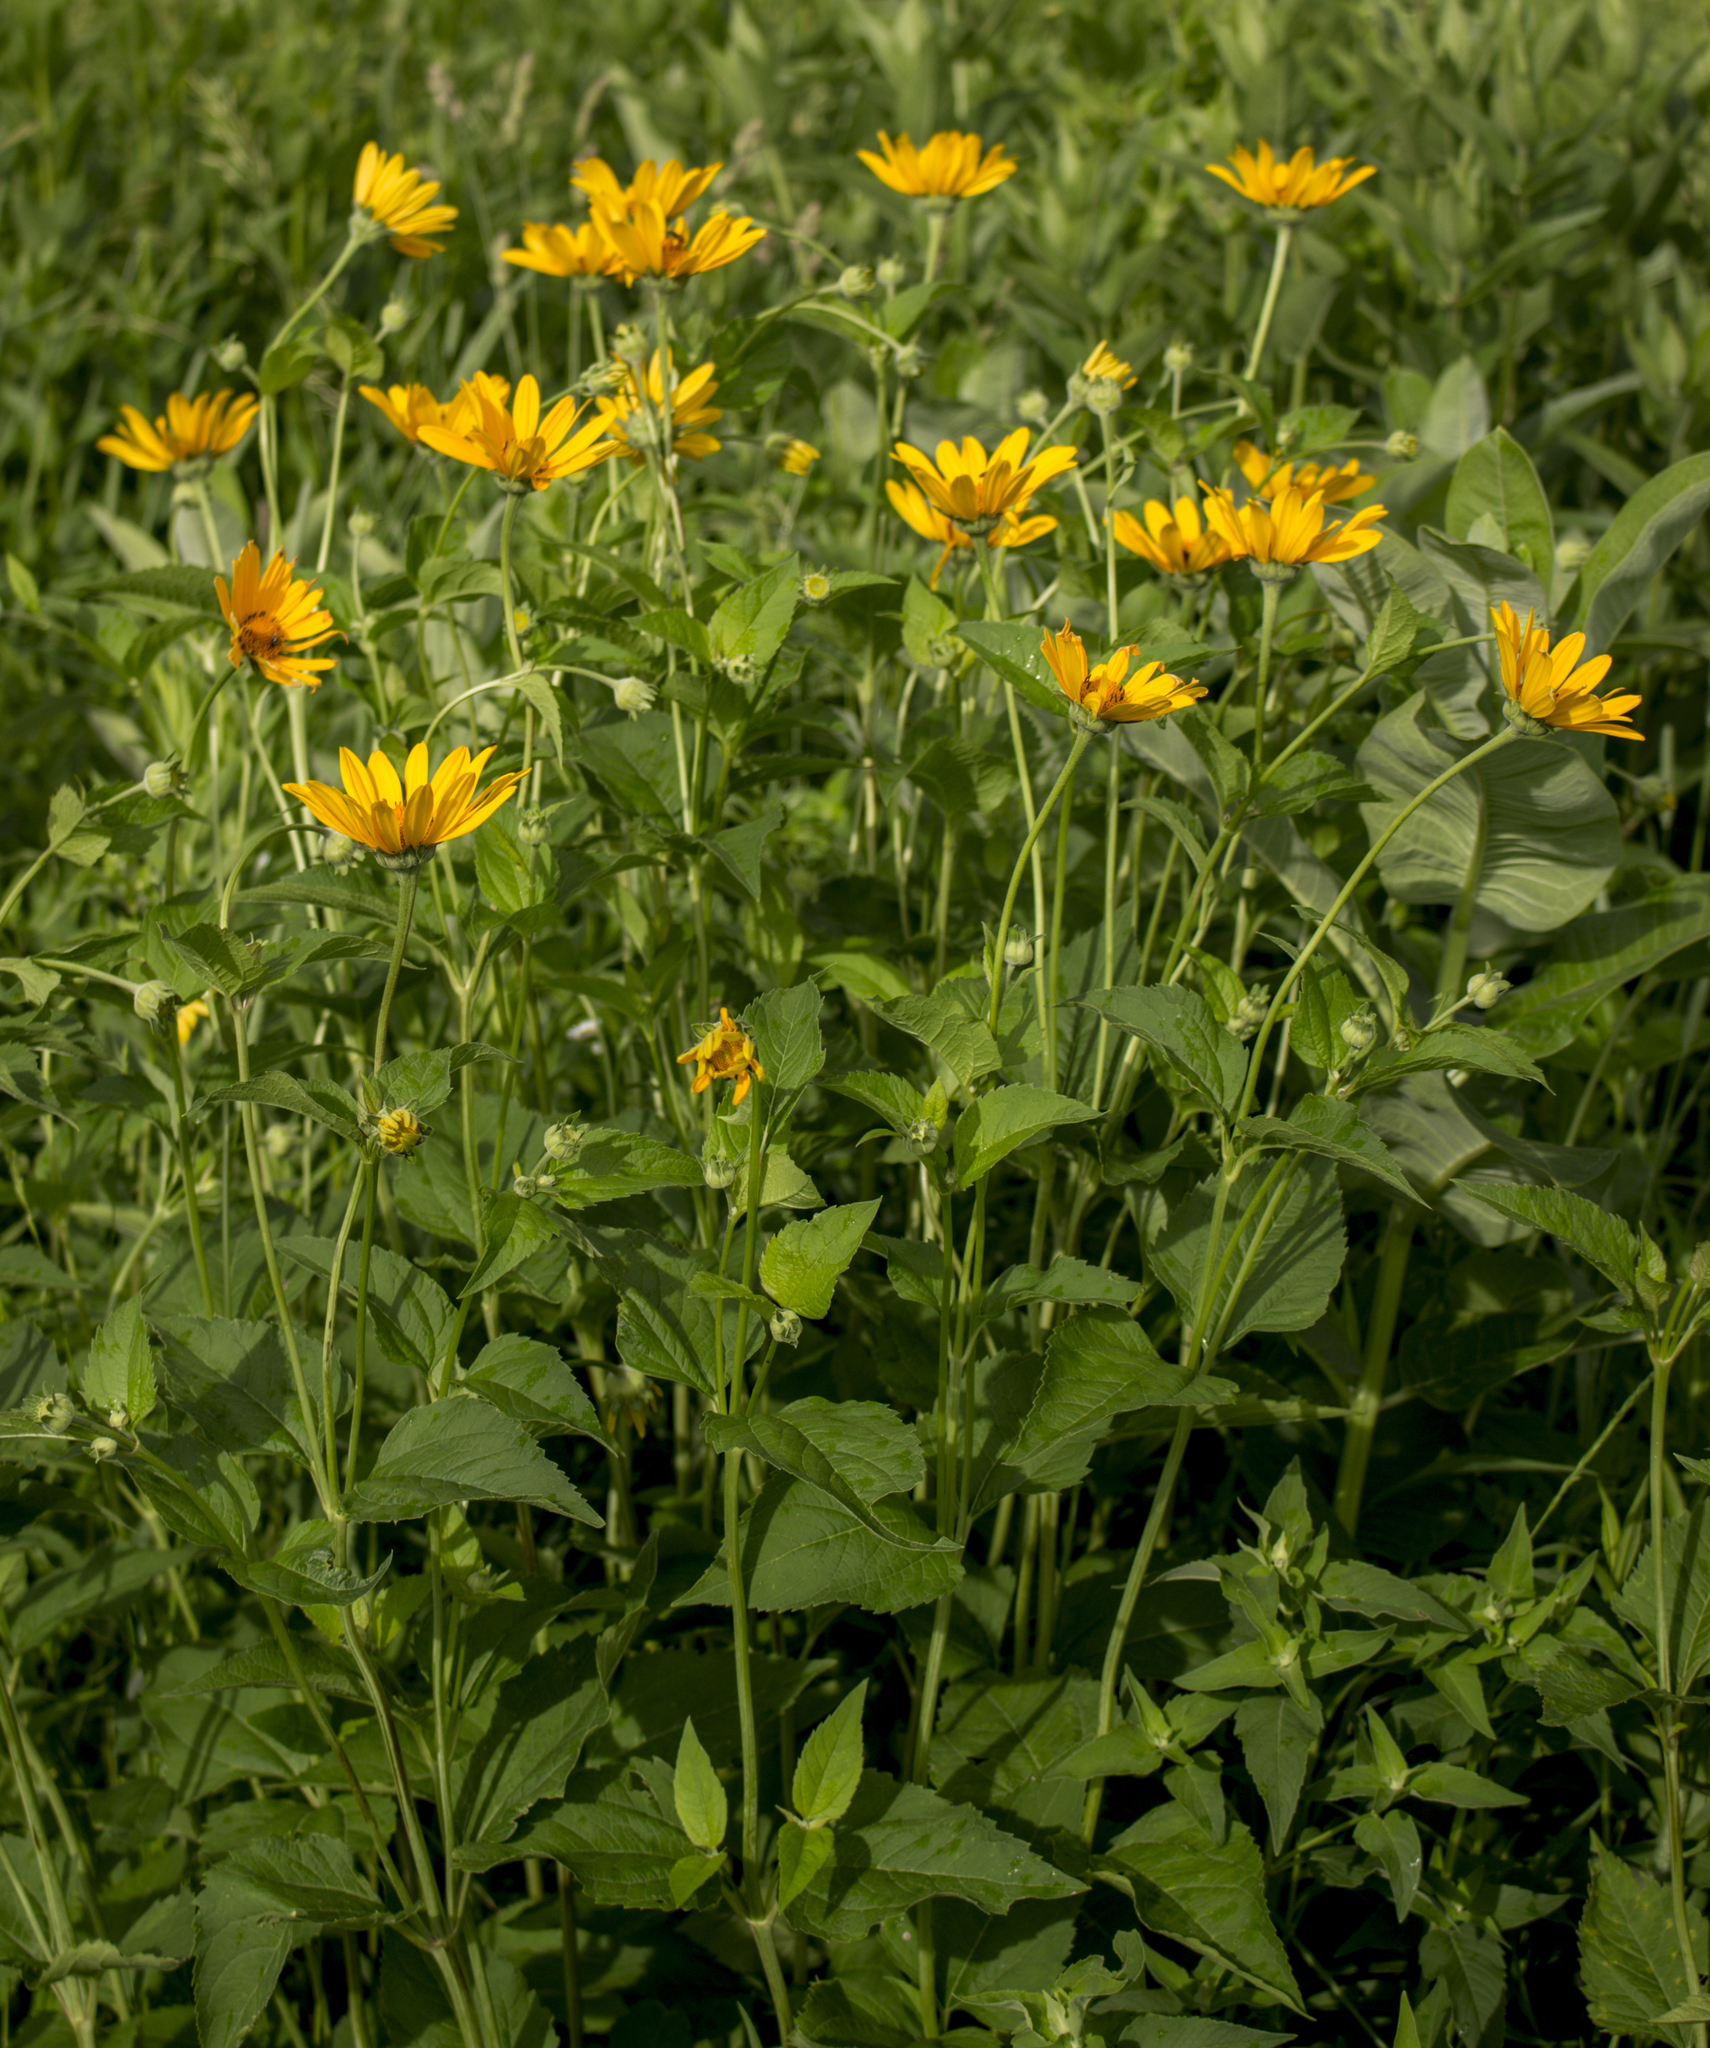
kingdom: Plantae
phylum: Tracheophyta
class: Magnoliopsida
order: Asterales
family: Asteraceae
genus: Heliopsis
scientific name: Heliopsis helianthoides
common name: False sunflower
